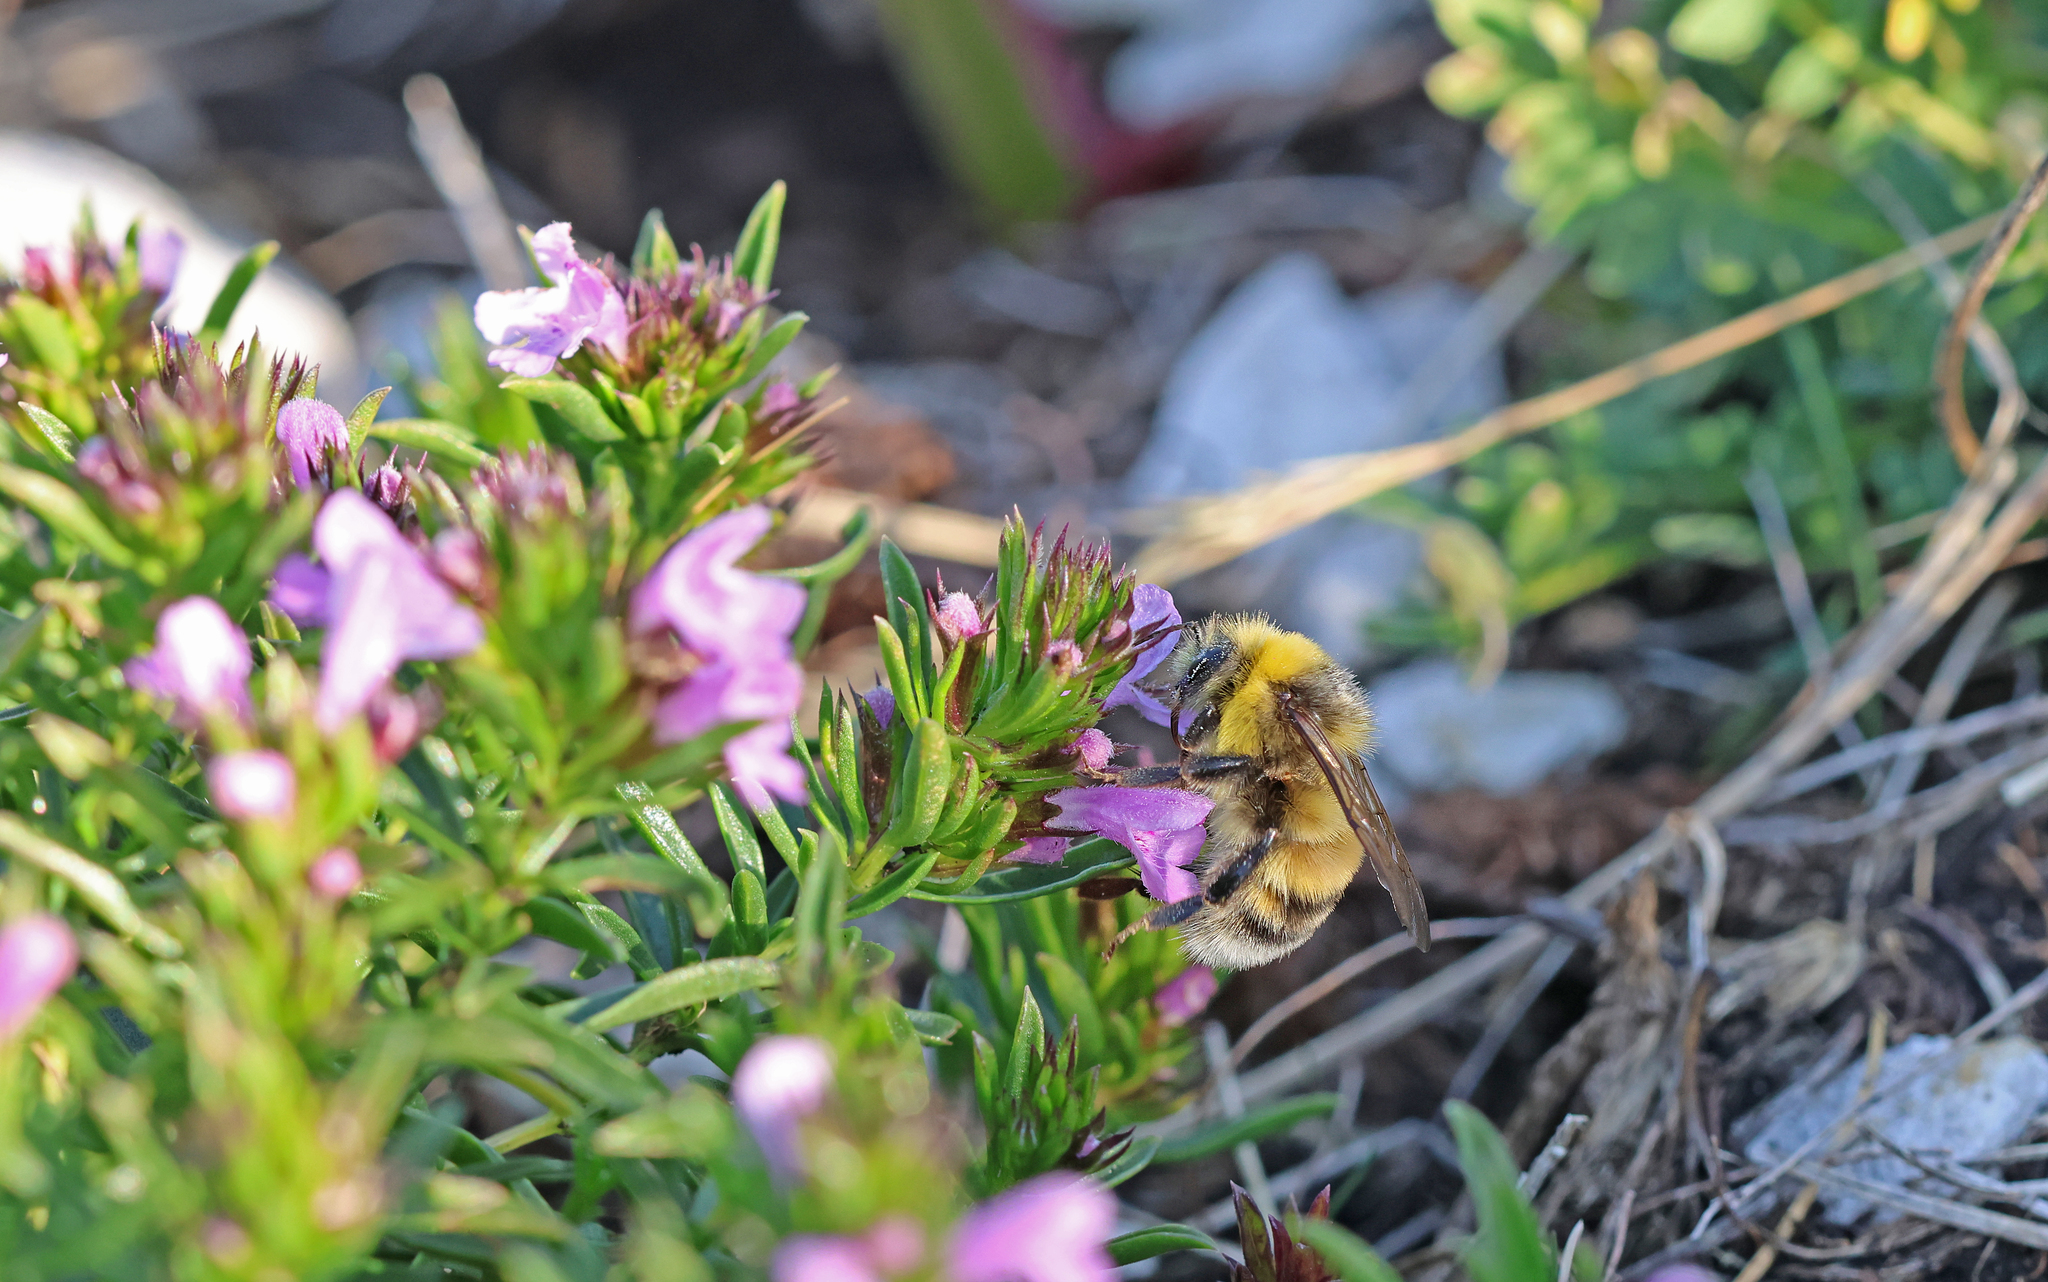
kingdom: Animalia
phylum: Arthropoda
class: Insecta
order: Hymenoptera
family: Apidae
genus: Bombus
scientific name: Bombus lucorum
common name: White-tailed bumblebee
